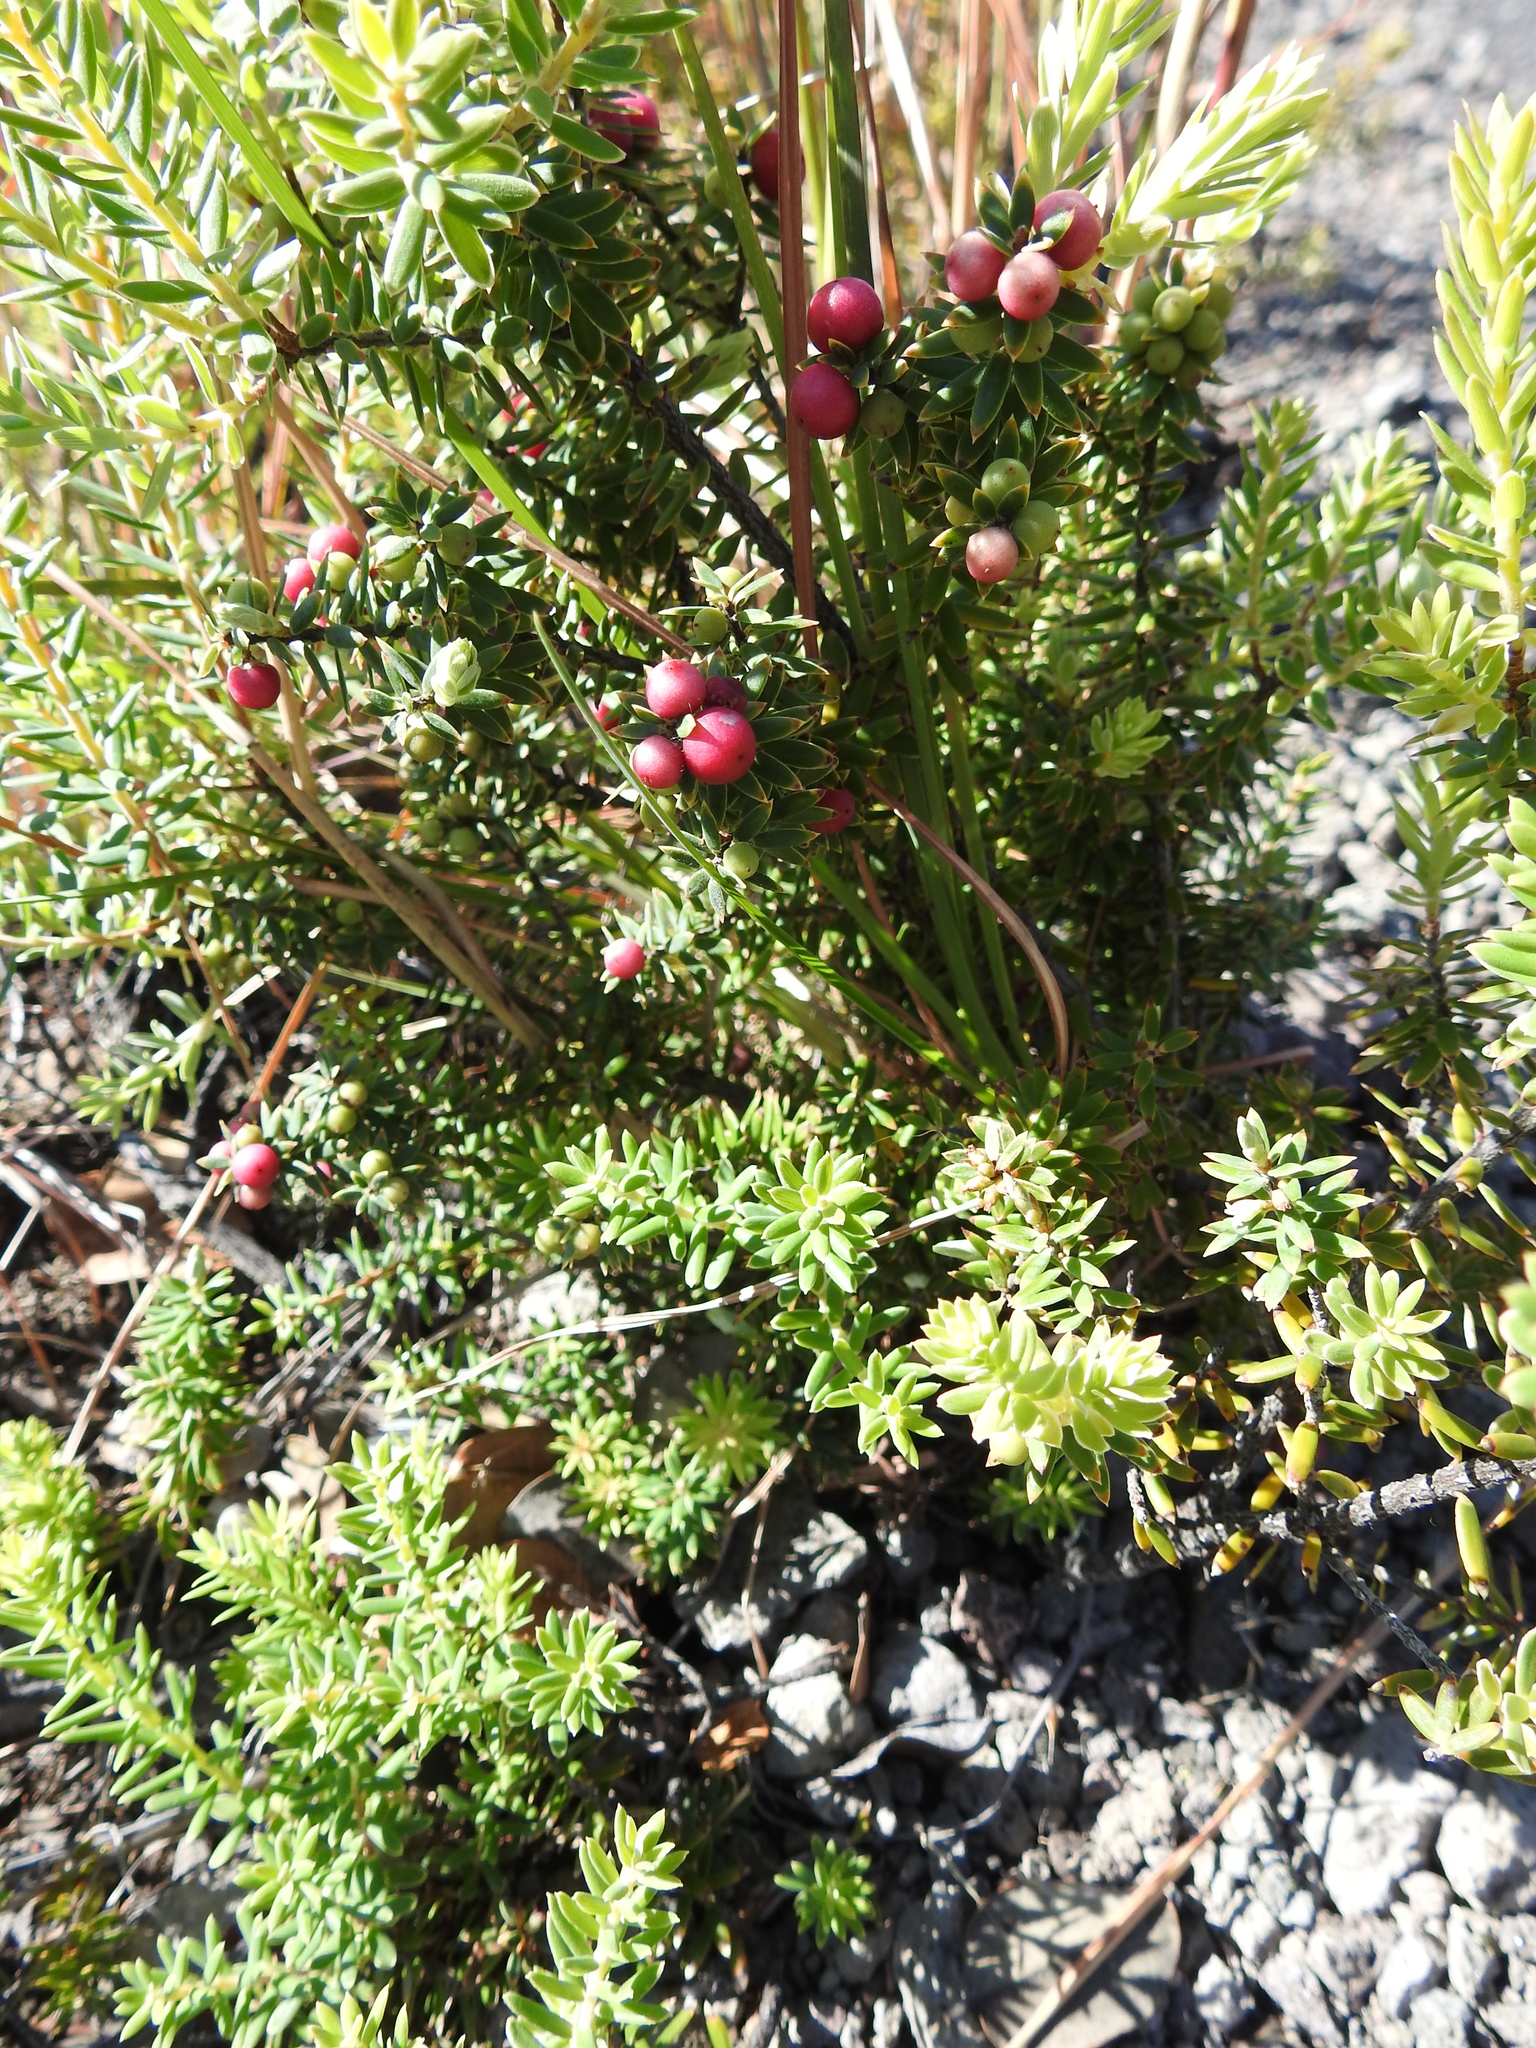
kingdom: Plantae
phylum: Tracheophyta
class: Magnoliopsida
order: Ericales
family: Ericaceae
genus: Leptecophylla
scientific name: Leptecophylla tameiameiae
